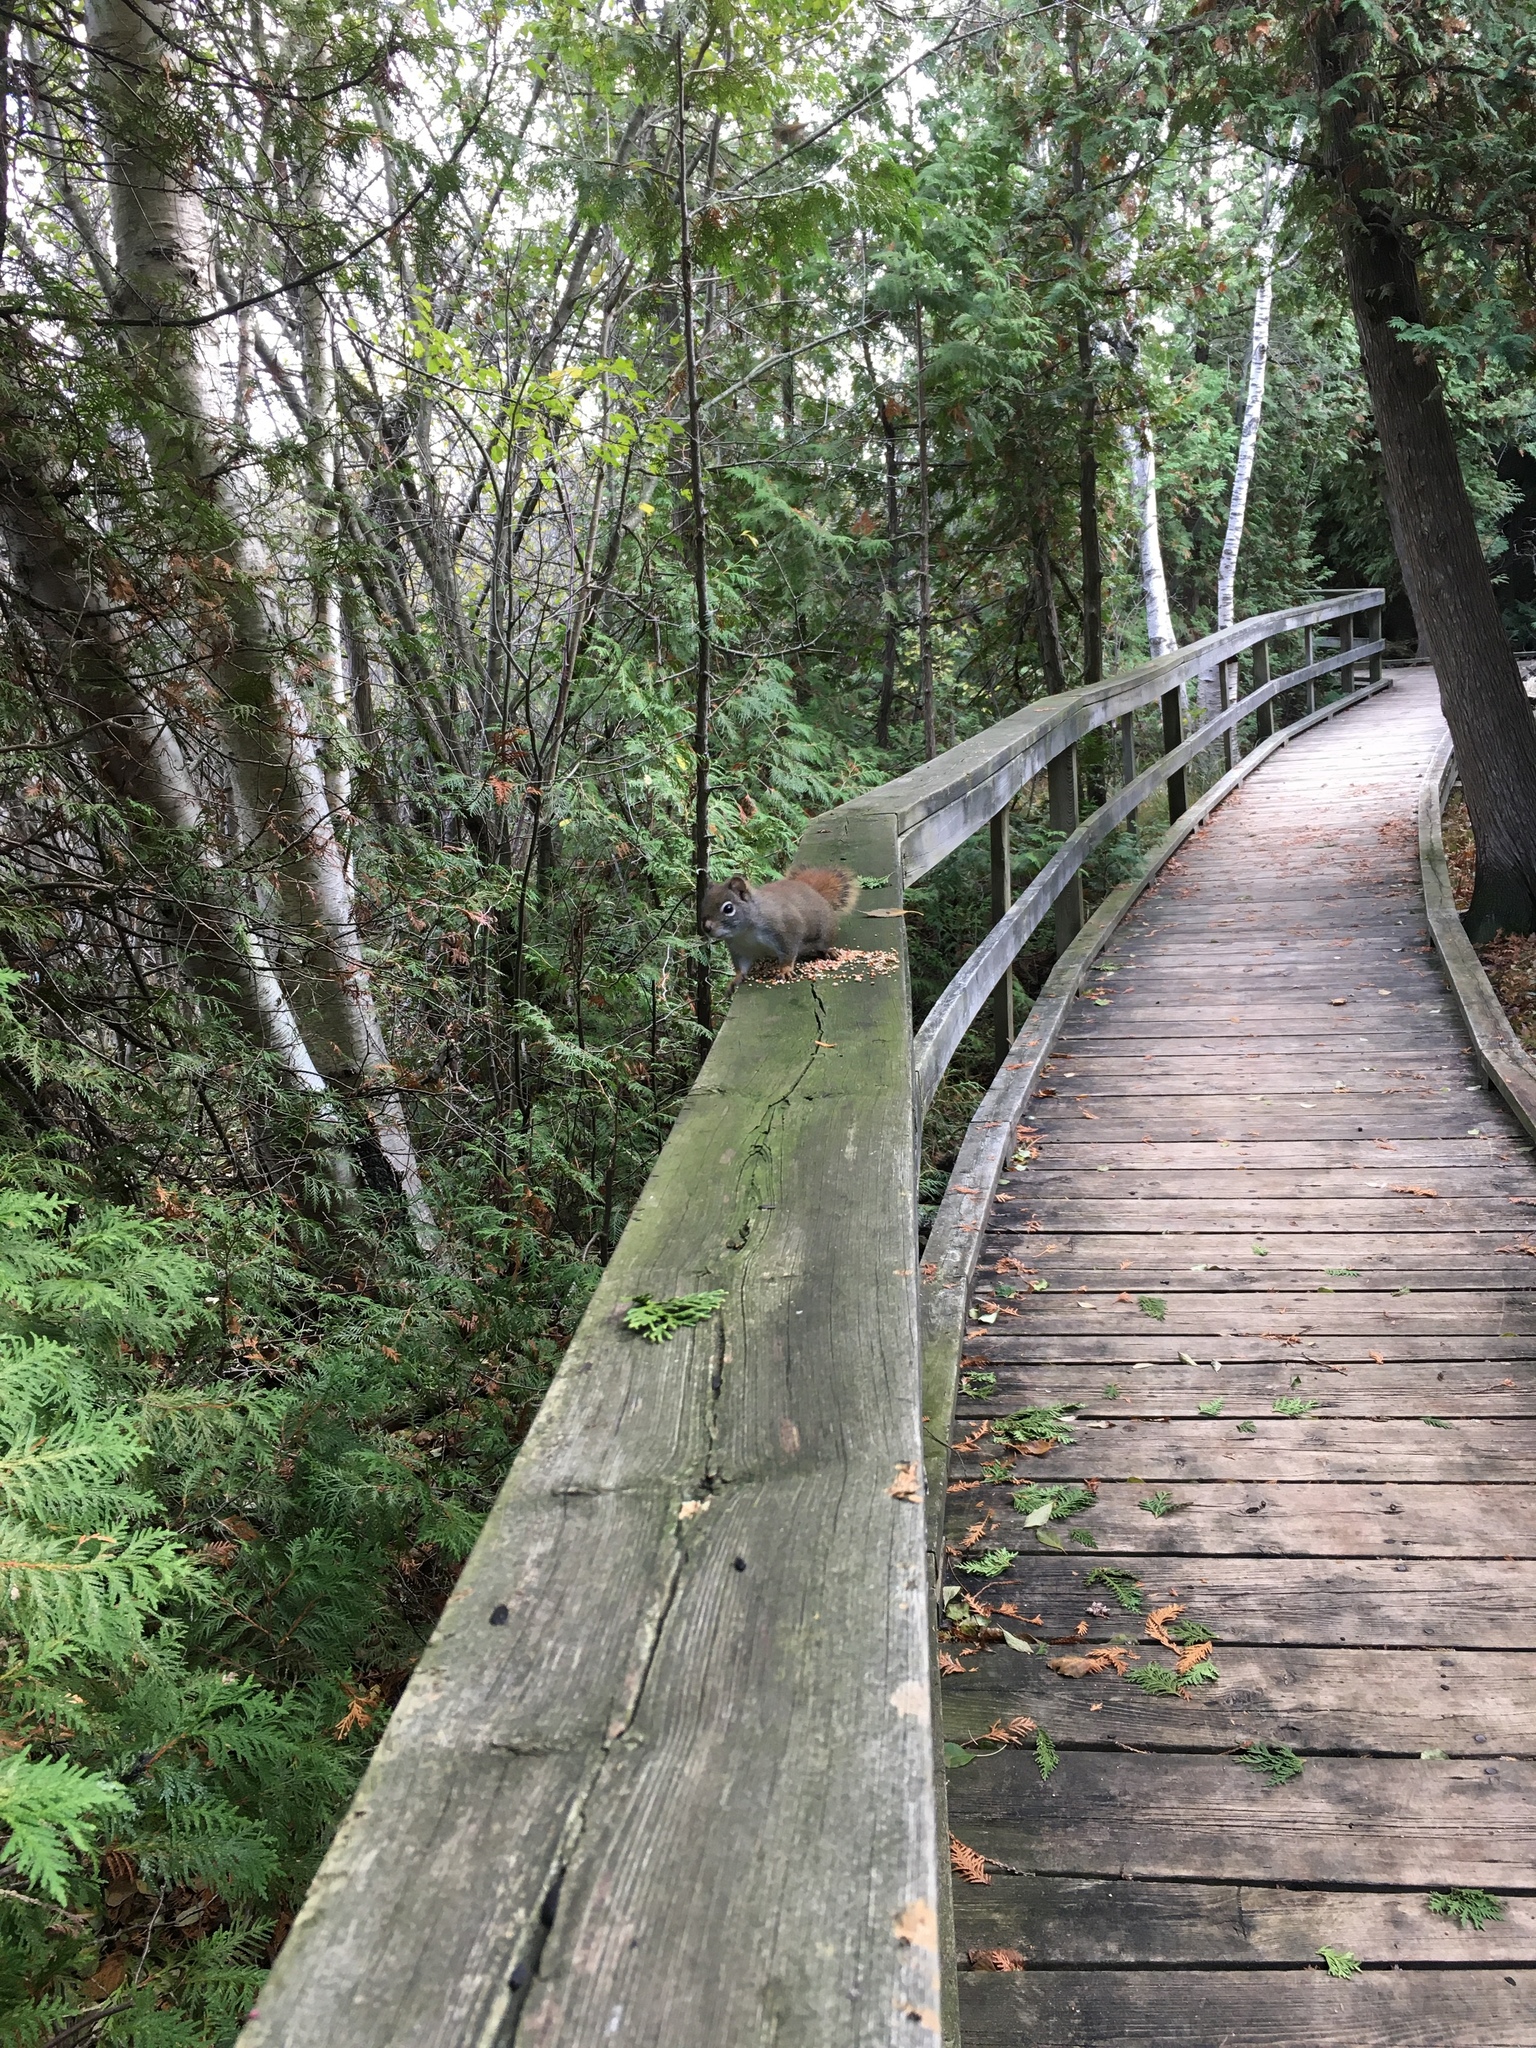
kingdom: Animalia
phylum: Chordata
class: Mammalia
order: Rodentia
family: Sciuridae
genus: Tamiasciurus
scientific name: Tamiasciurus hudsonicus
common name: Red squirrel
